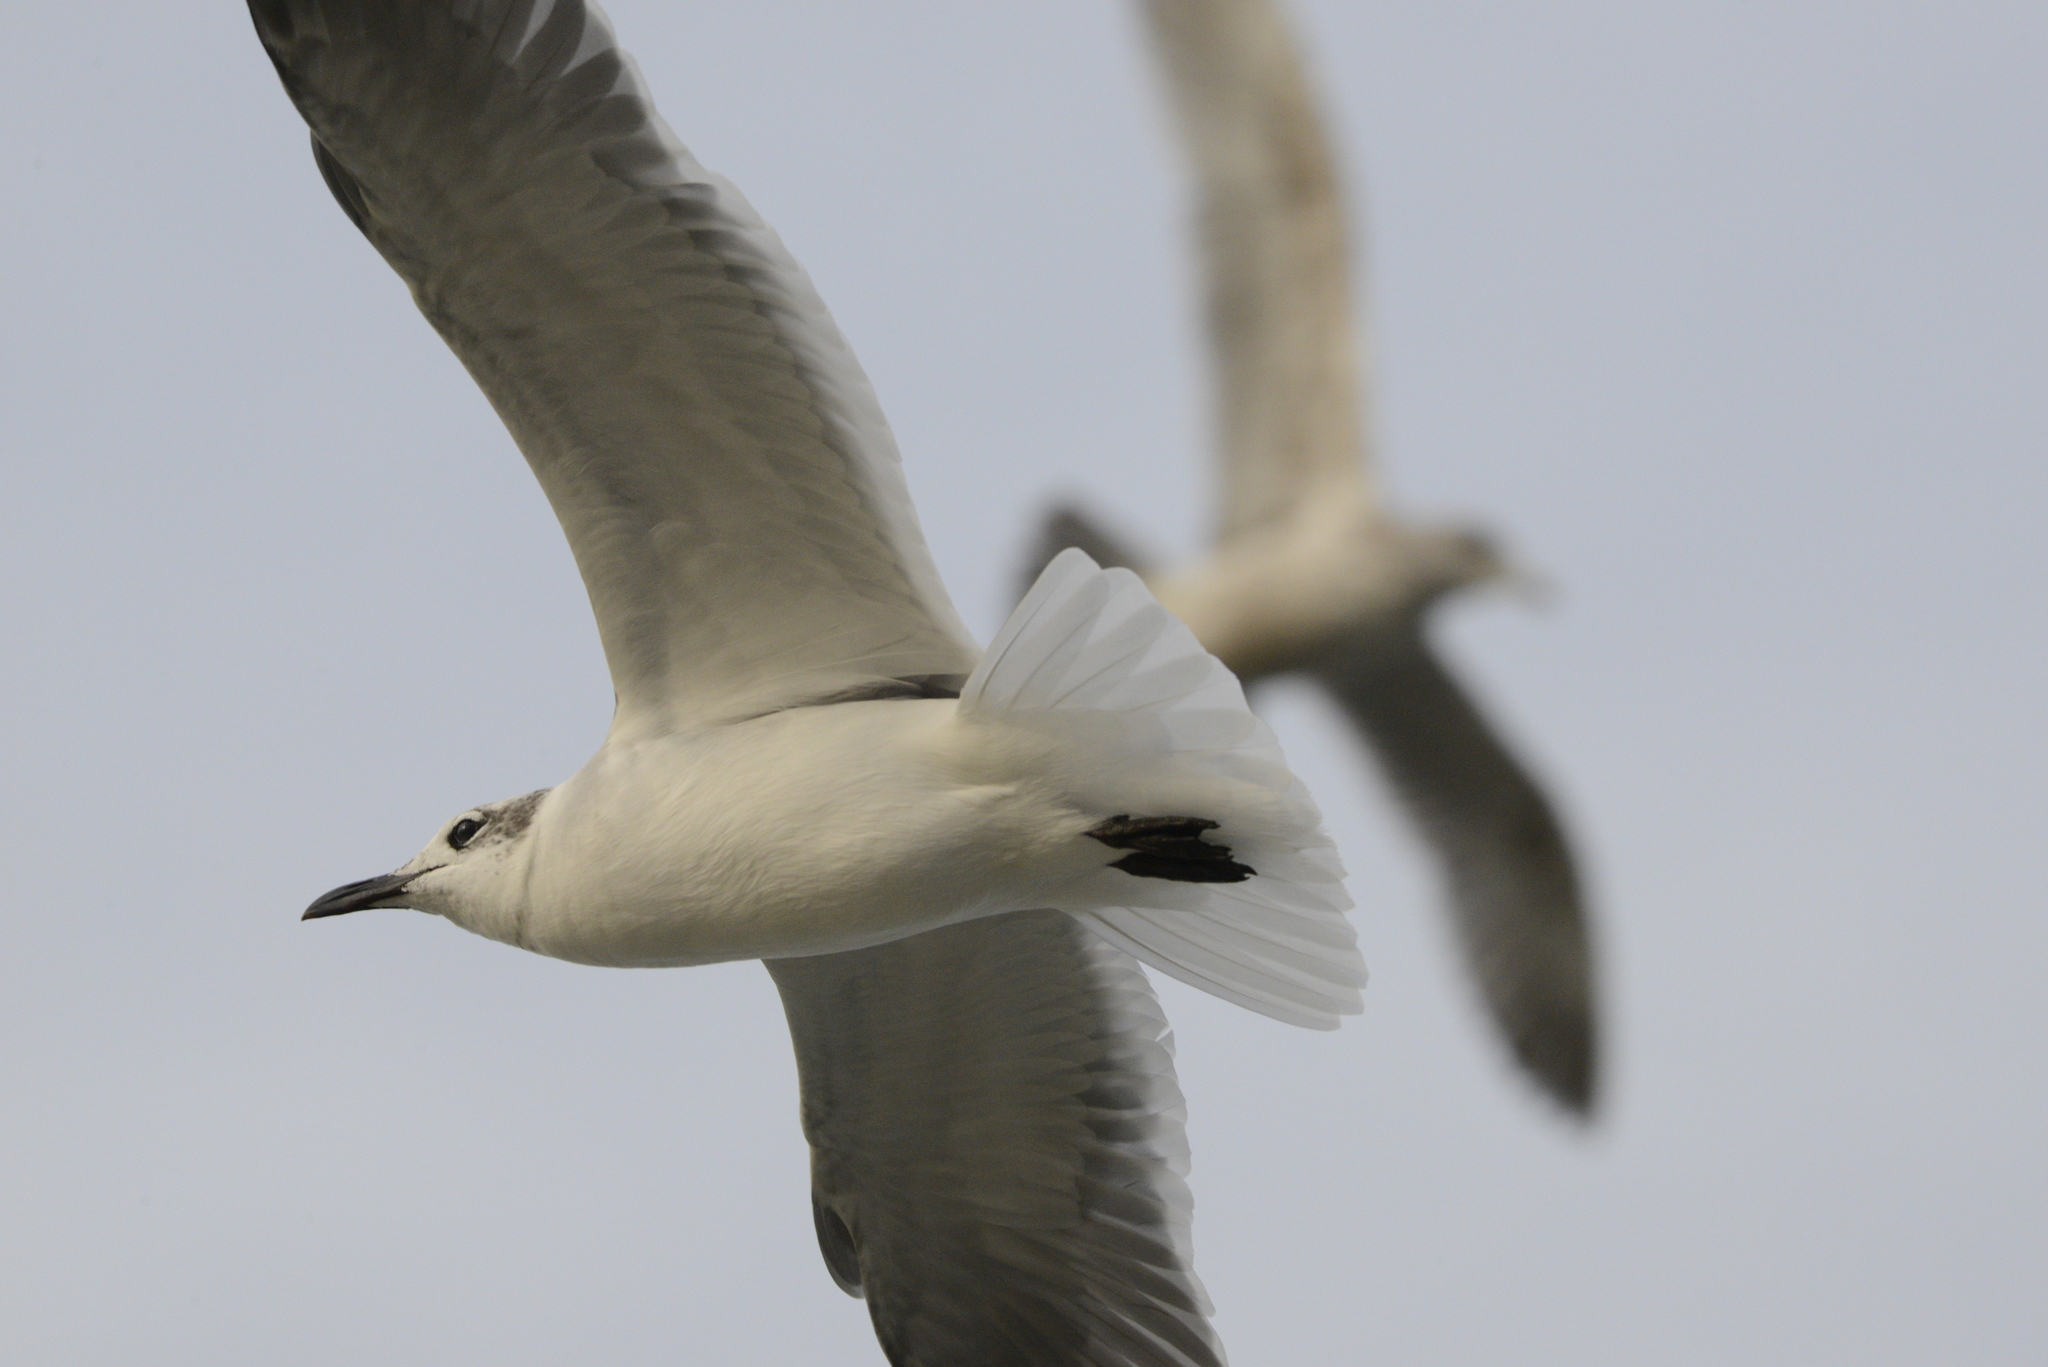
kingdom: Animalia
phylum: Chordata
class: Aves
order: Charadriiformes
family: Laridae
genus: Leucophaeus
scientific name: Leucophaeus atricilla
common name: Laughing gull
